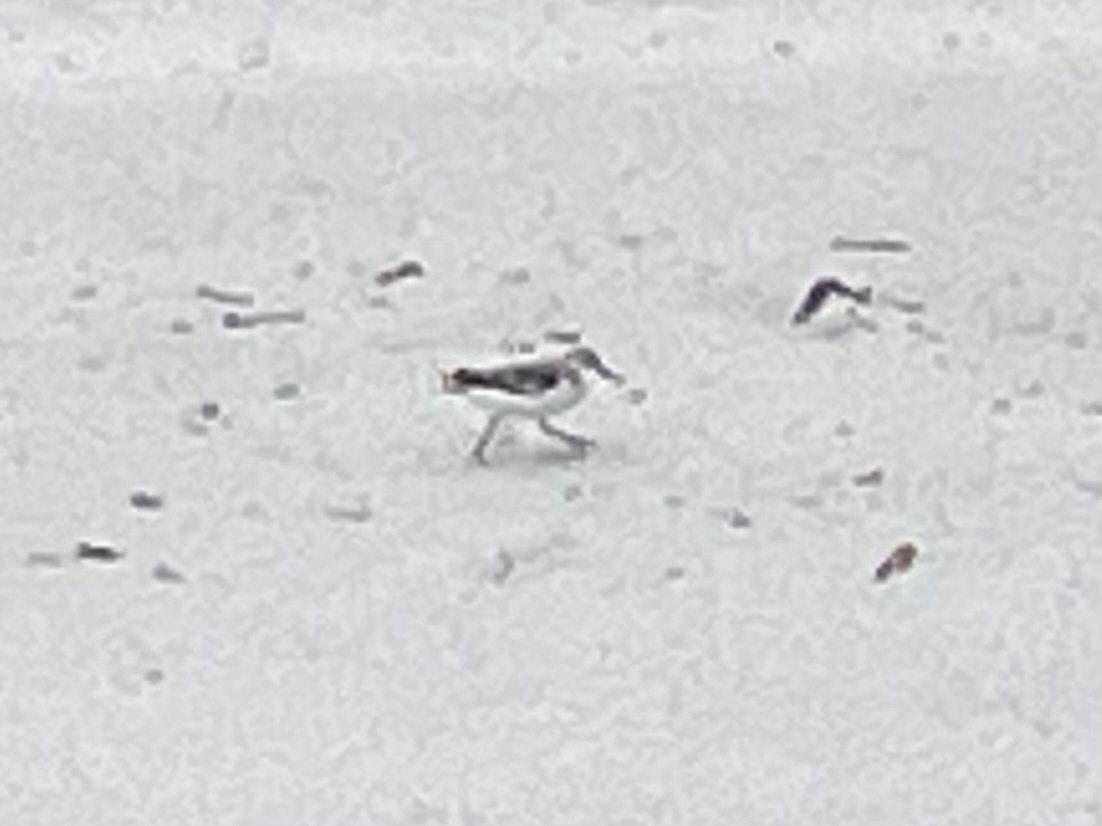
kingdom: Animalia
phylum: Chordata
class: Aves
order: Charadriiformes
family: Scolopacidae
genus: Calidris
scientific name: Calidris alba
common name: Sanderling
